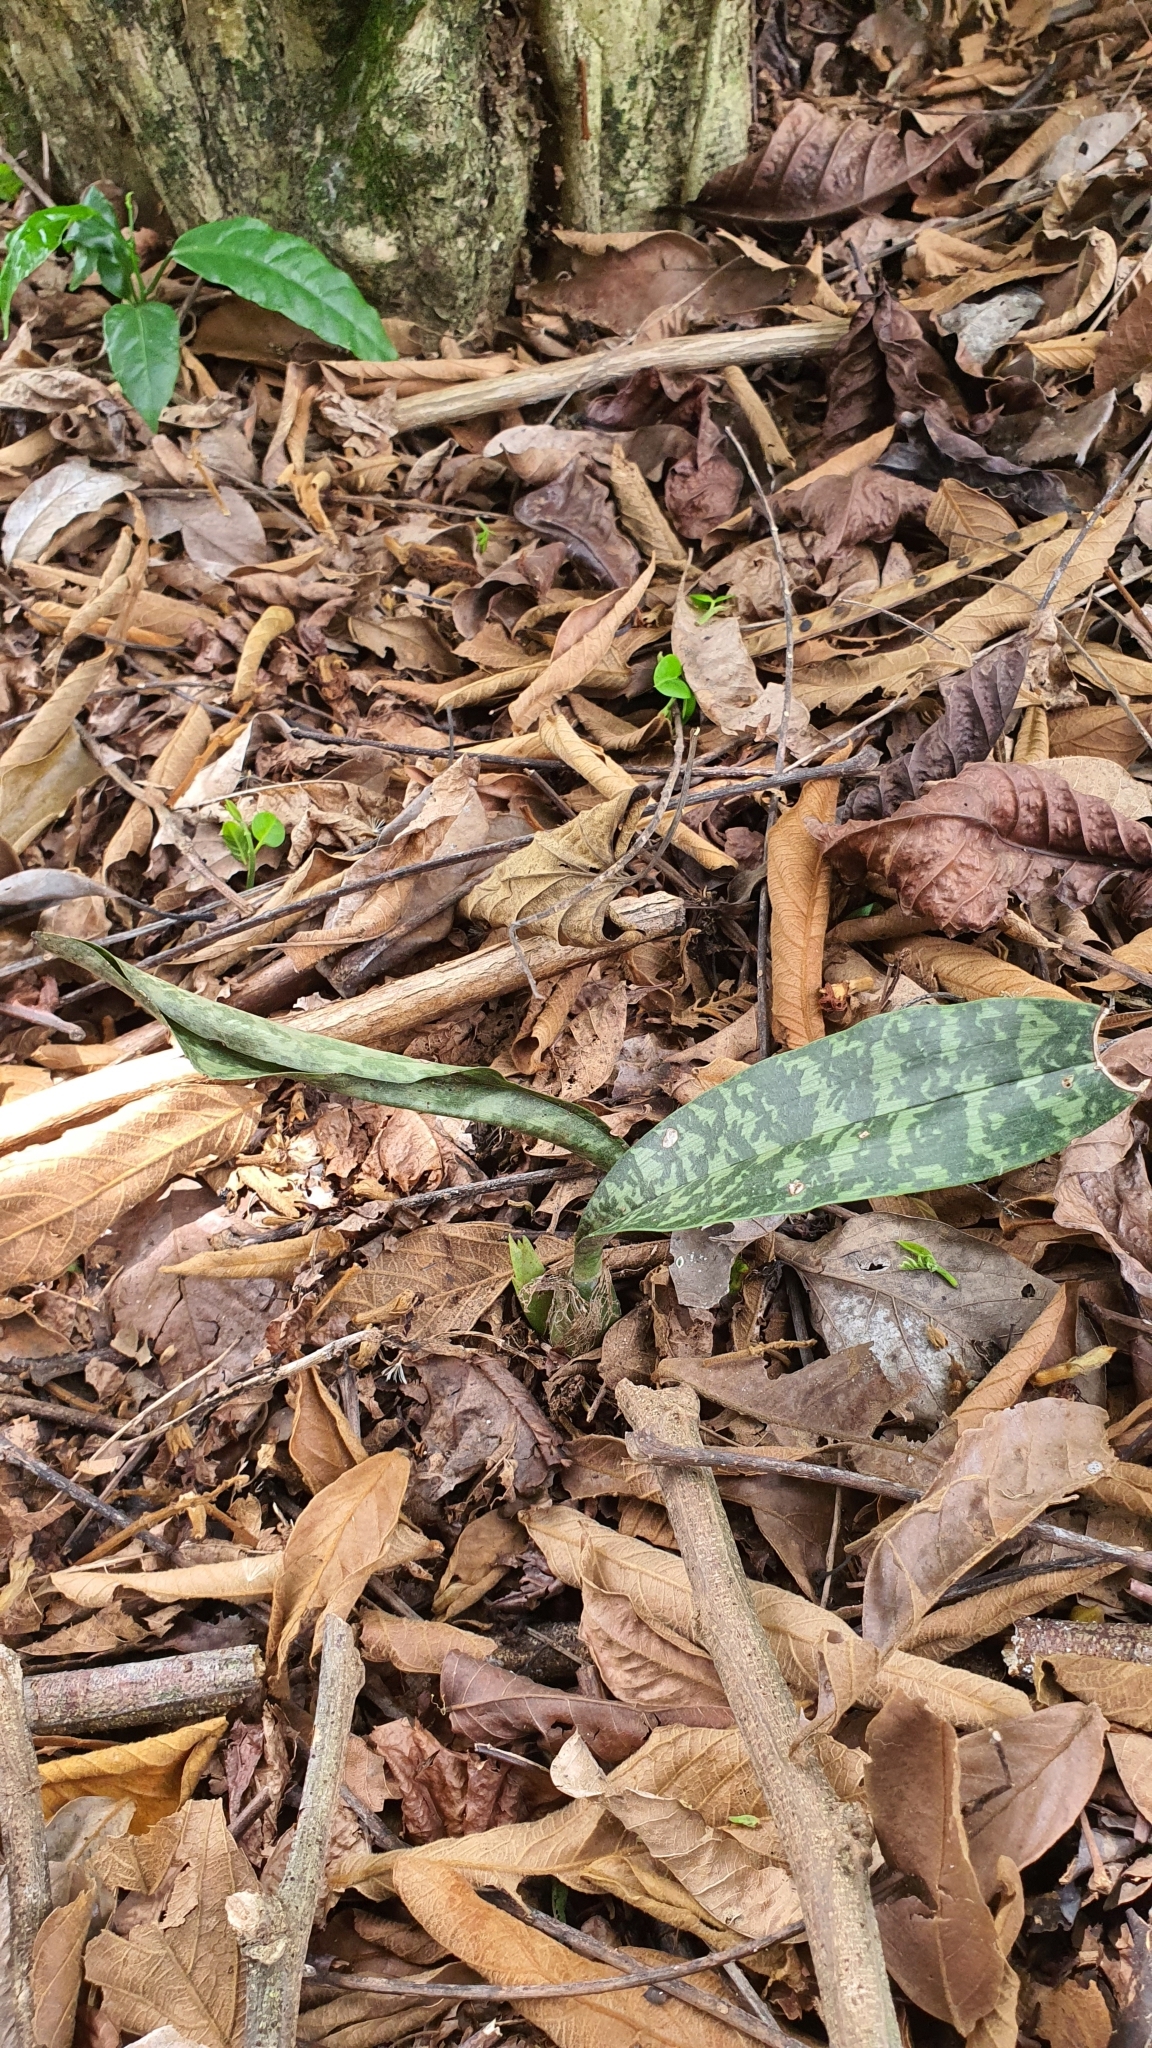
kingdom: Plantae
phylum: Tracheophyta
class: Liliopsida
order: Asparagales
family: Orchidaceae
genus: Eulophia
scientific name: Eulophia maculata
